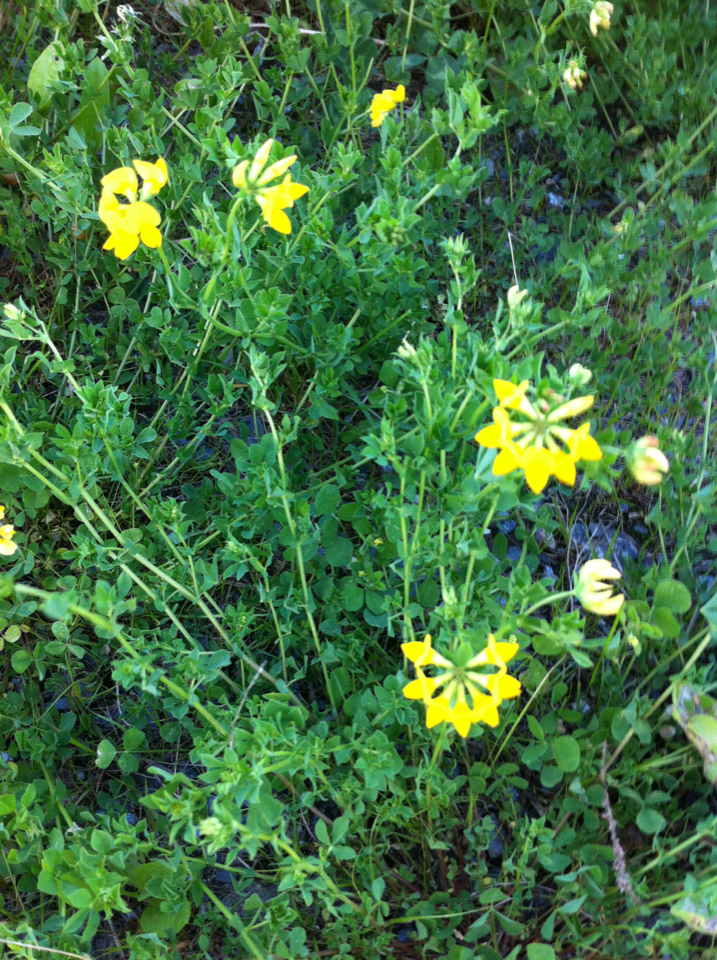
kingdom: Plantae
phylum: Tracheophyta
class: Magnoliopsida
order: Fabales
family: Fabaceae
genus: Lotus
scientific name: Lotus corniculatus
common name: Common bird's-foot-trefoil
